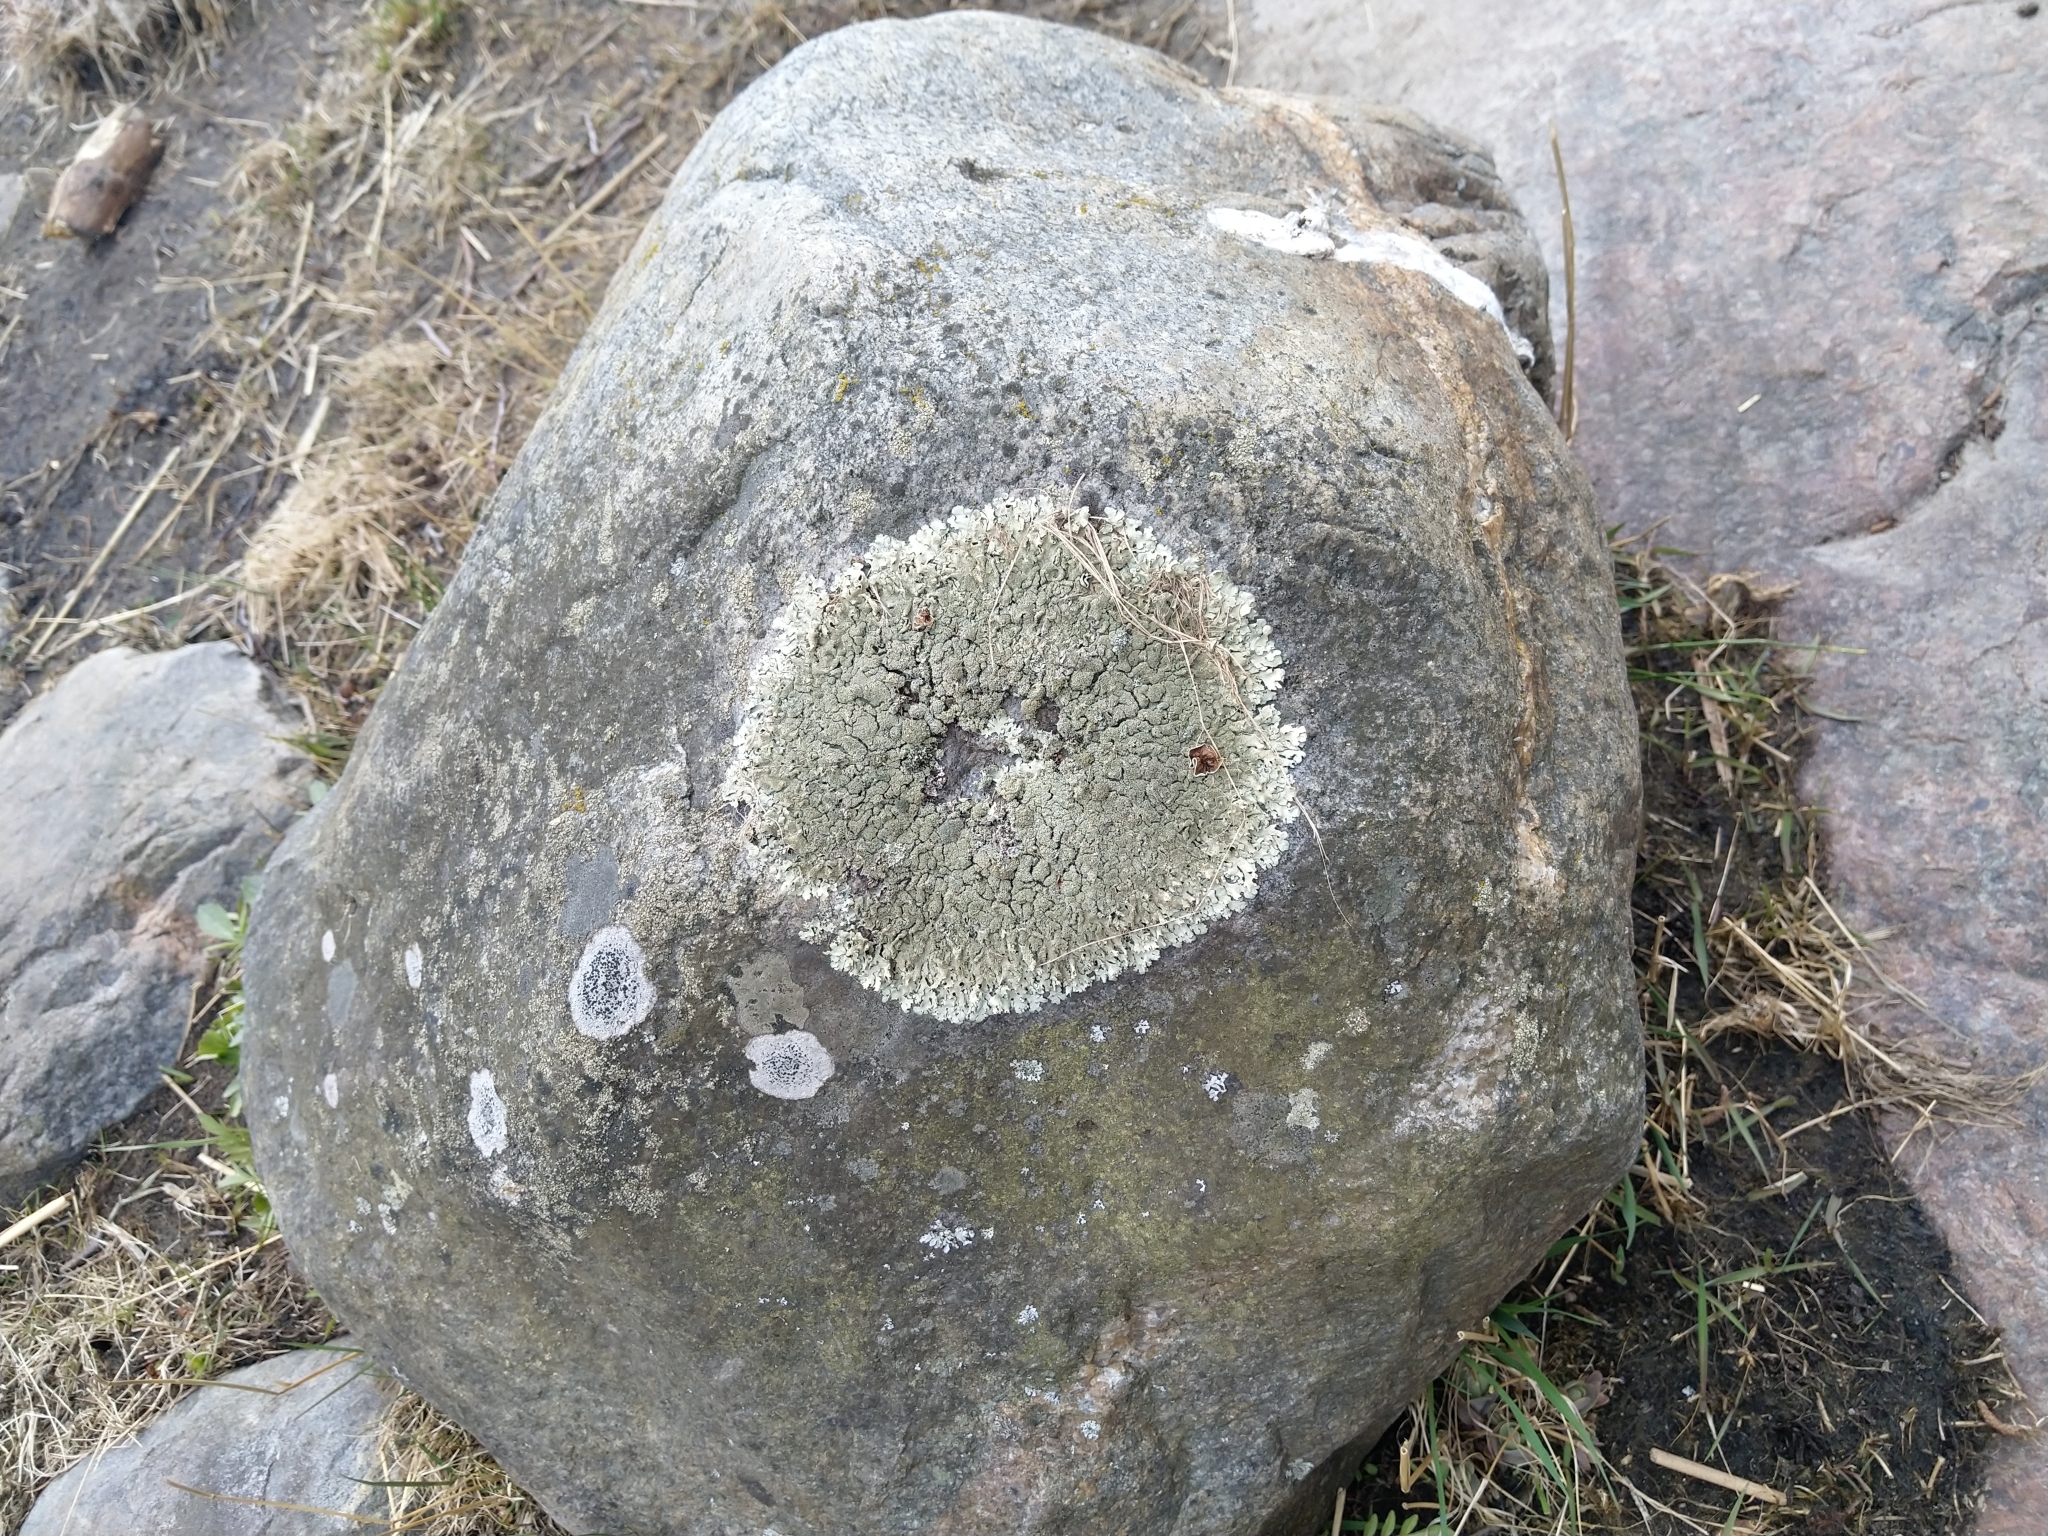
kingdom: Fungi
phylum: Ascomycota
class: Lecanoromycetes
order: Lecanorales
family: Parmeliaceae
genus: Xanthoparmelia
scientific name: Xanthoparmelia conspersa
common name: Peppered rock shield
